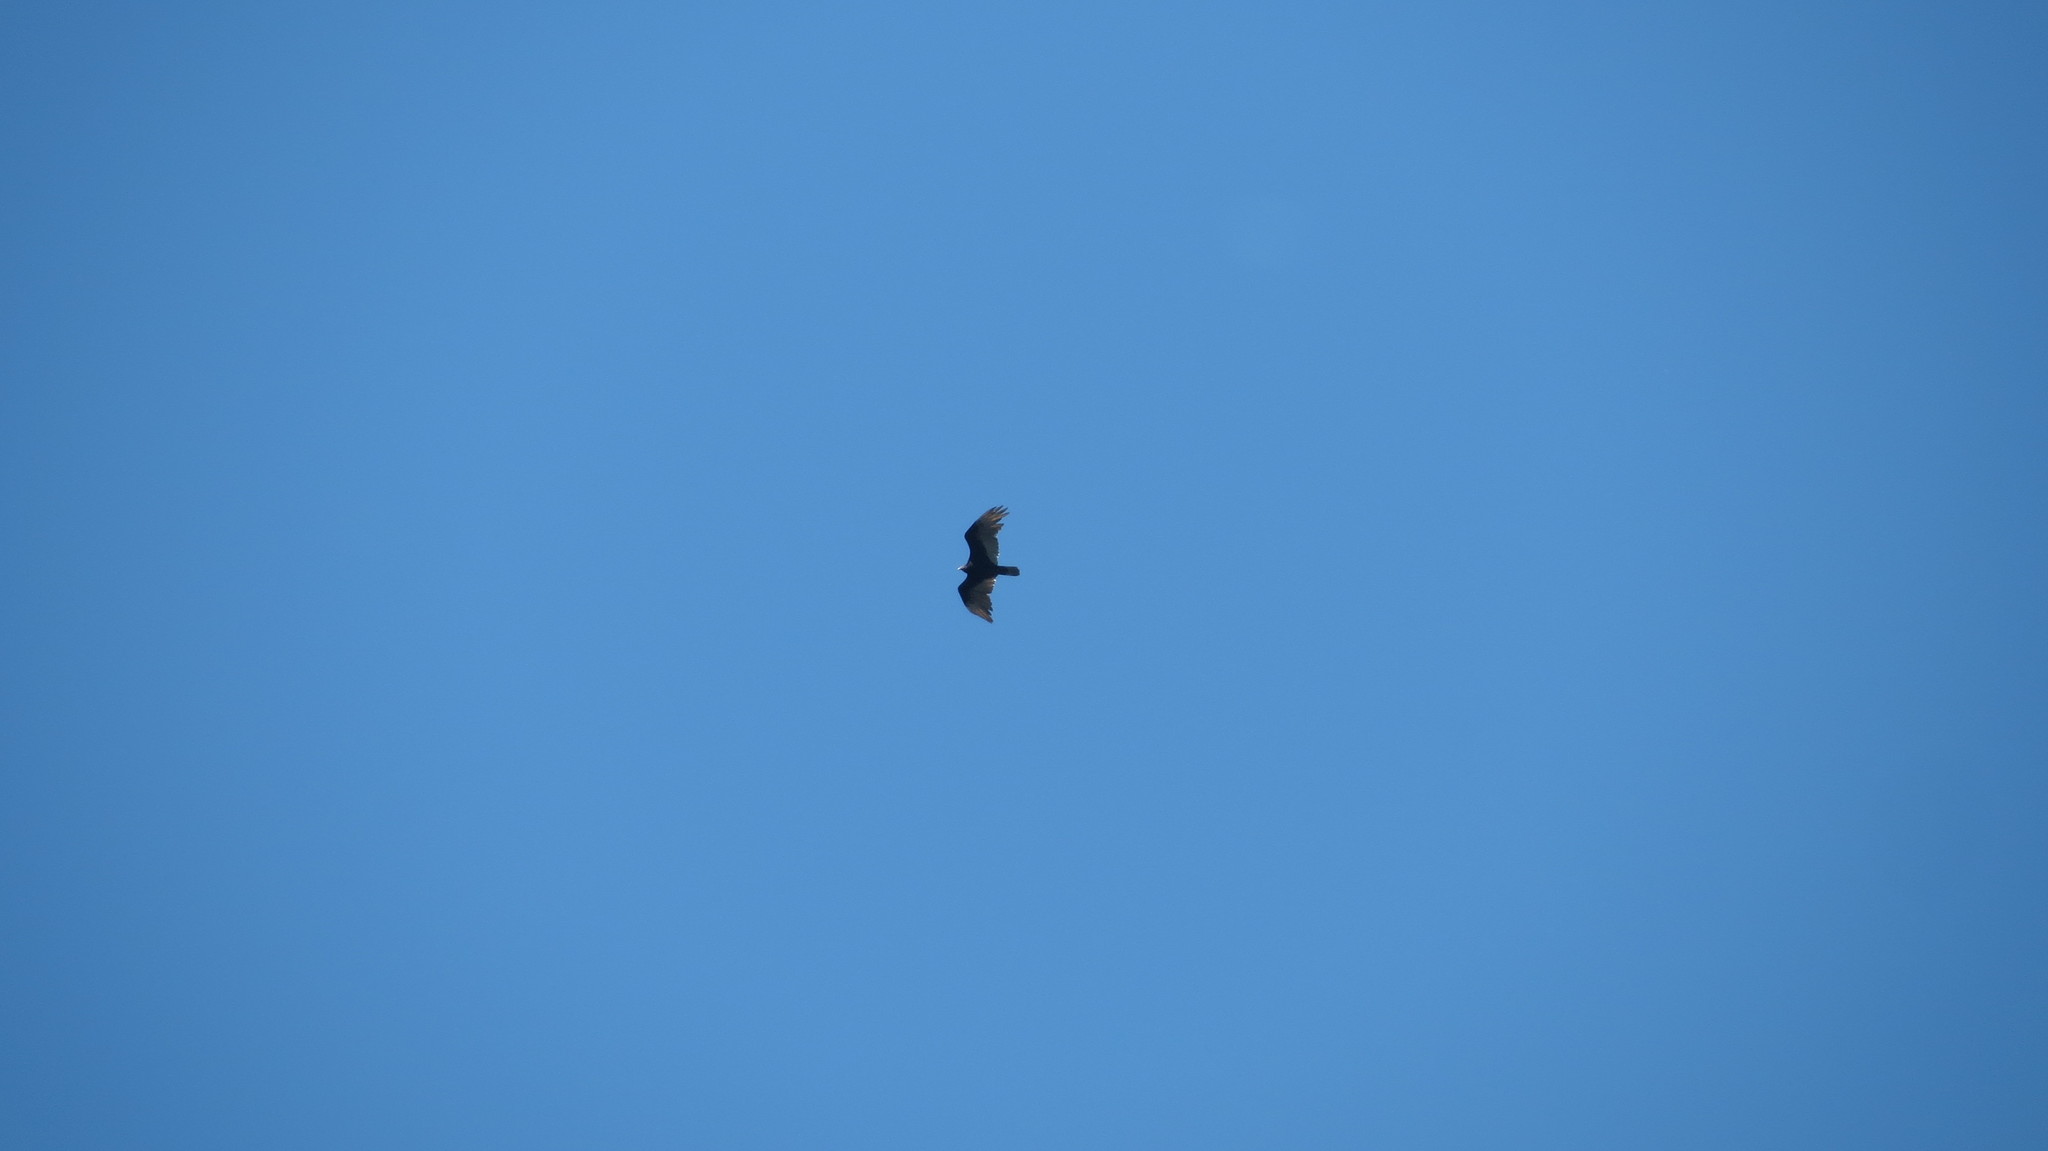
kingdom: Animalia
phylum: Chordata
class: Aves
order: Accipitriformes
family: Cathartidae
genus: Cathartes
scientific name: Cathartes aura
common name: Turkey vulture
